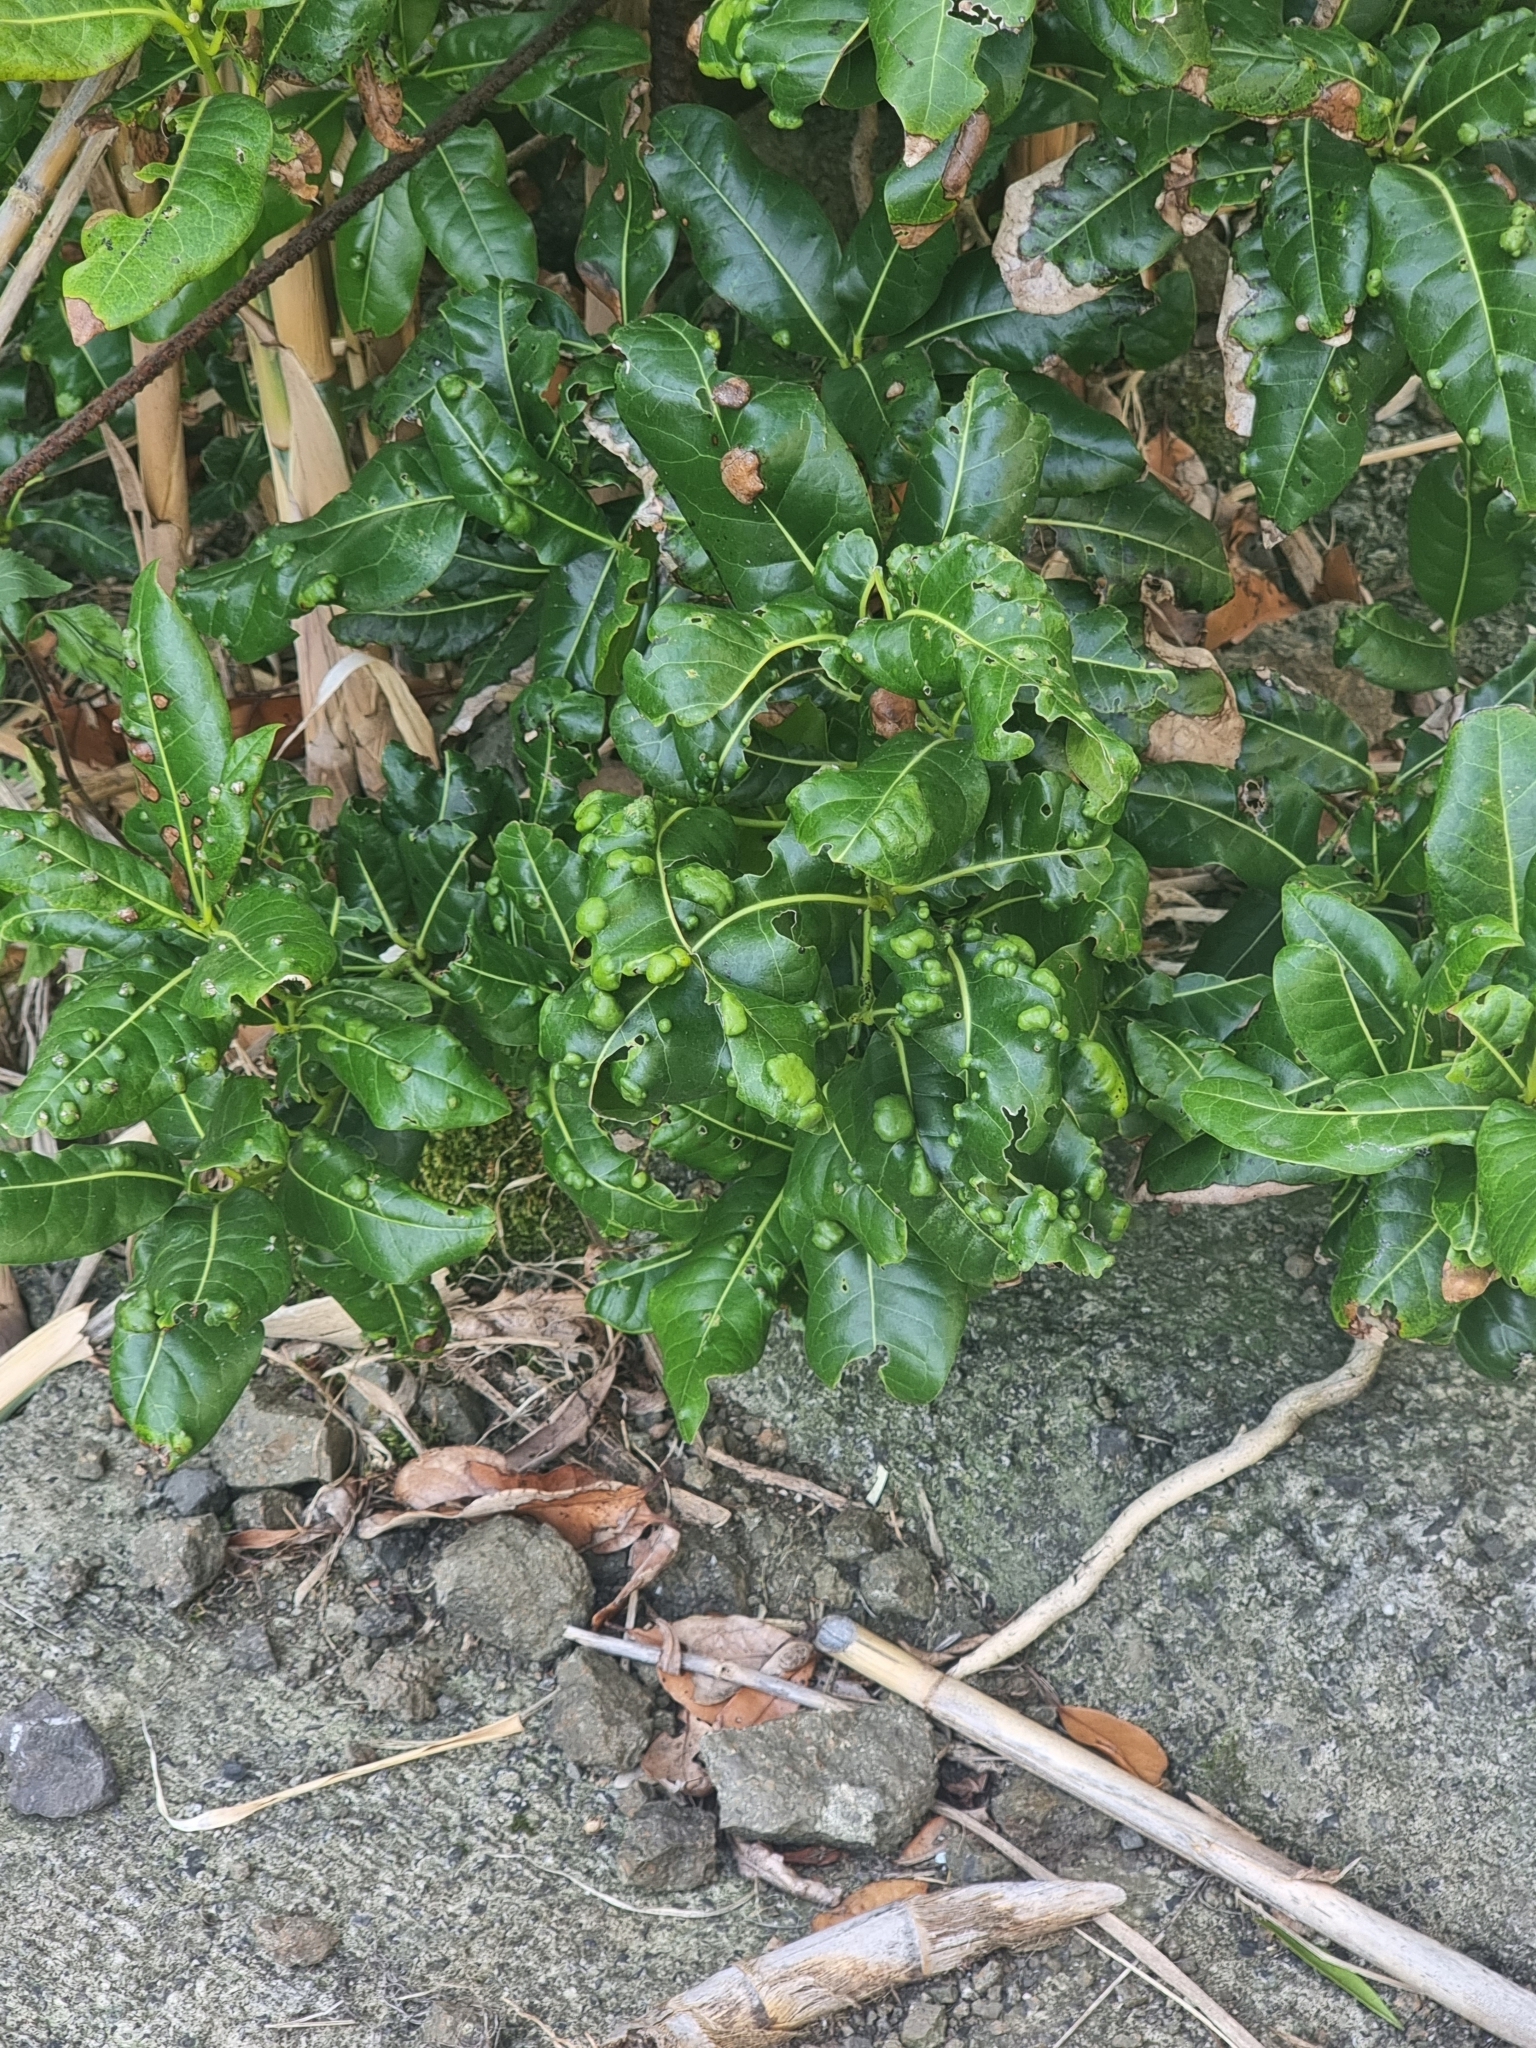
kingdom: Plantae
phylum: Tracheophyta
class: Magnoliopsida
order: Laurales
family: Lauraceae
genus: Apollonias
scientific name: Apollonias barbujana
